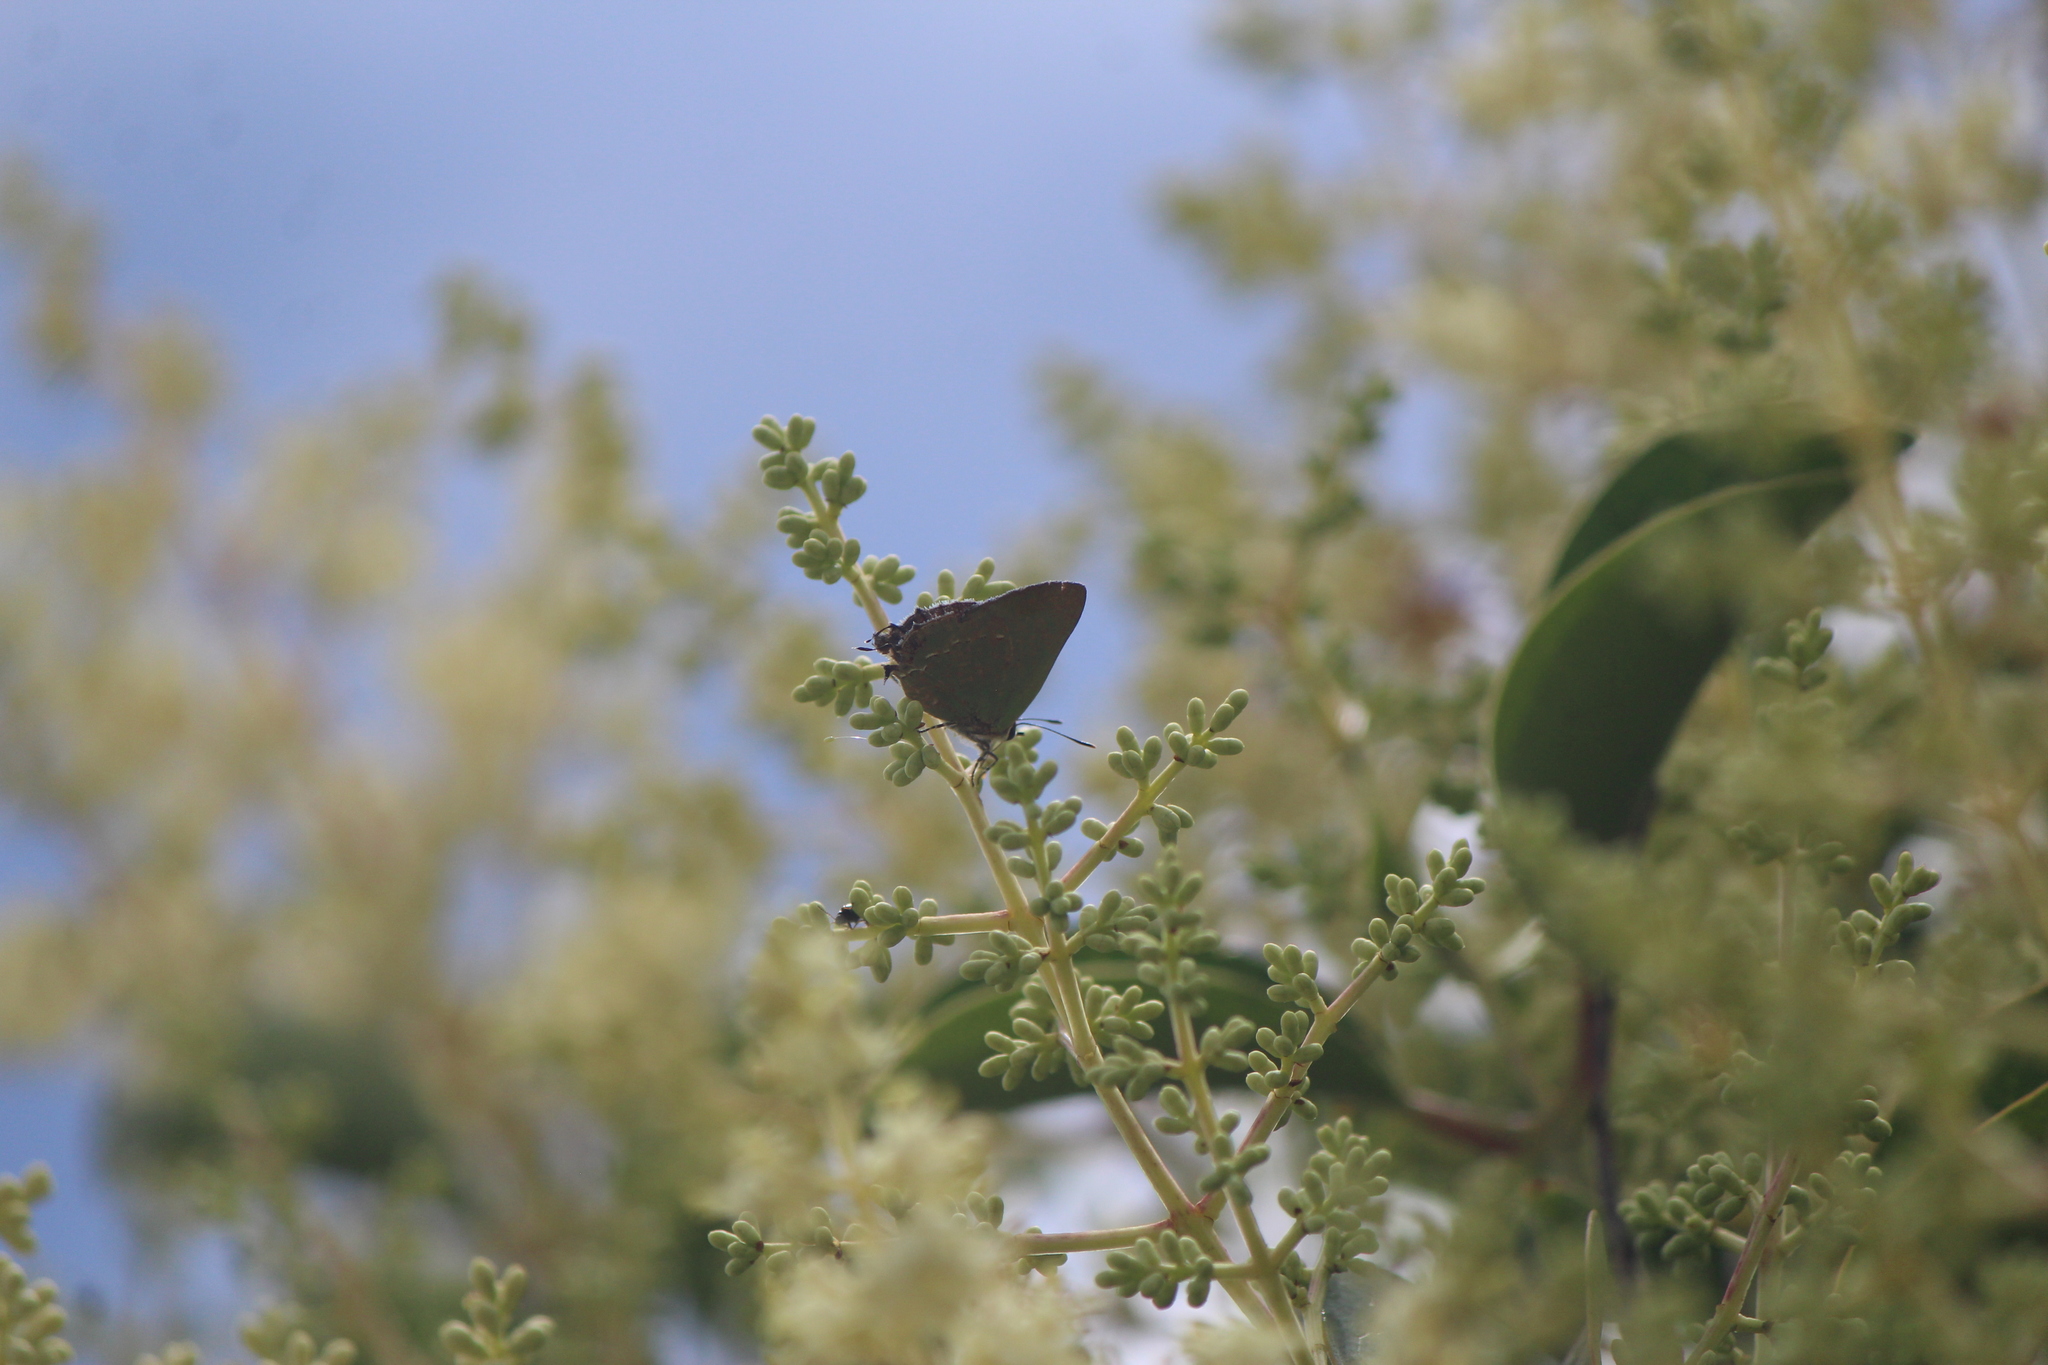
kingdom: Animalia
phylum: Arthropoda
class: Insecta
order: Lepidoptera
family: Lycaenidae
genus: Cyanophrys
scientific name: Cyanophrys miserabilis
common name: Clench's greenstreak
